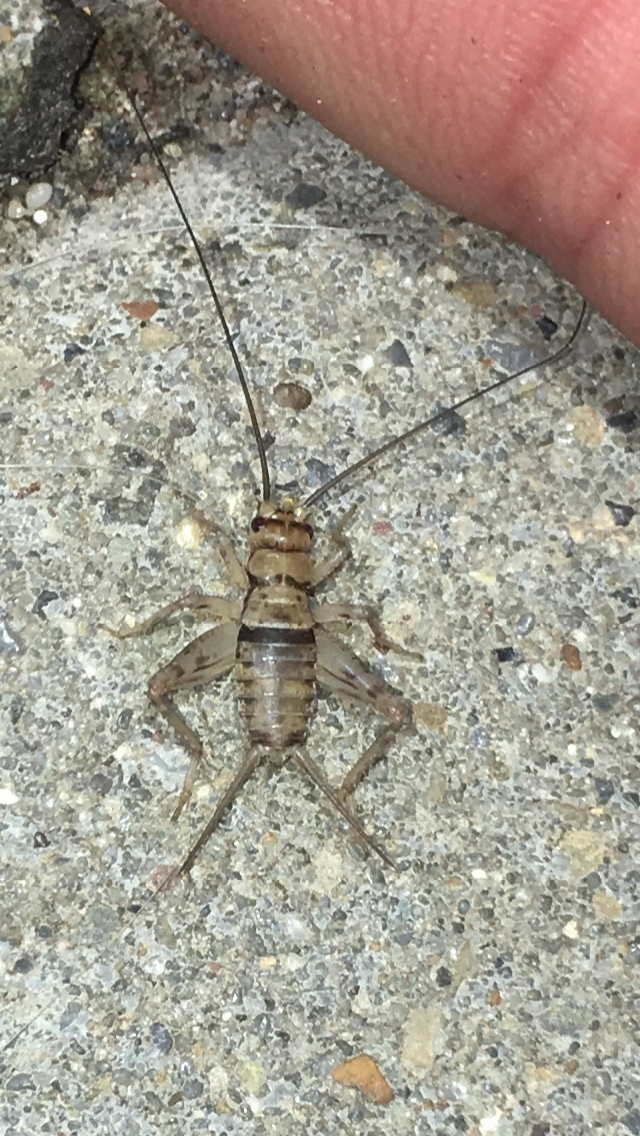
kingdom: Animalia
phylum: Arthropoda
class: Insecta
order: Orthoptera
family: Gryllidae
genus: Gryllodes
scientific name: Gryllodes sigillatus
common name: Tropical house cricket
